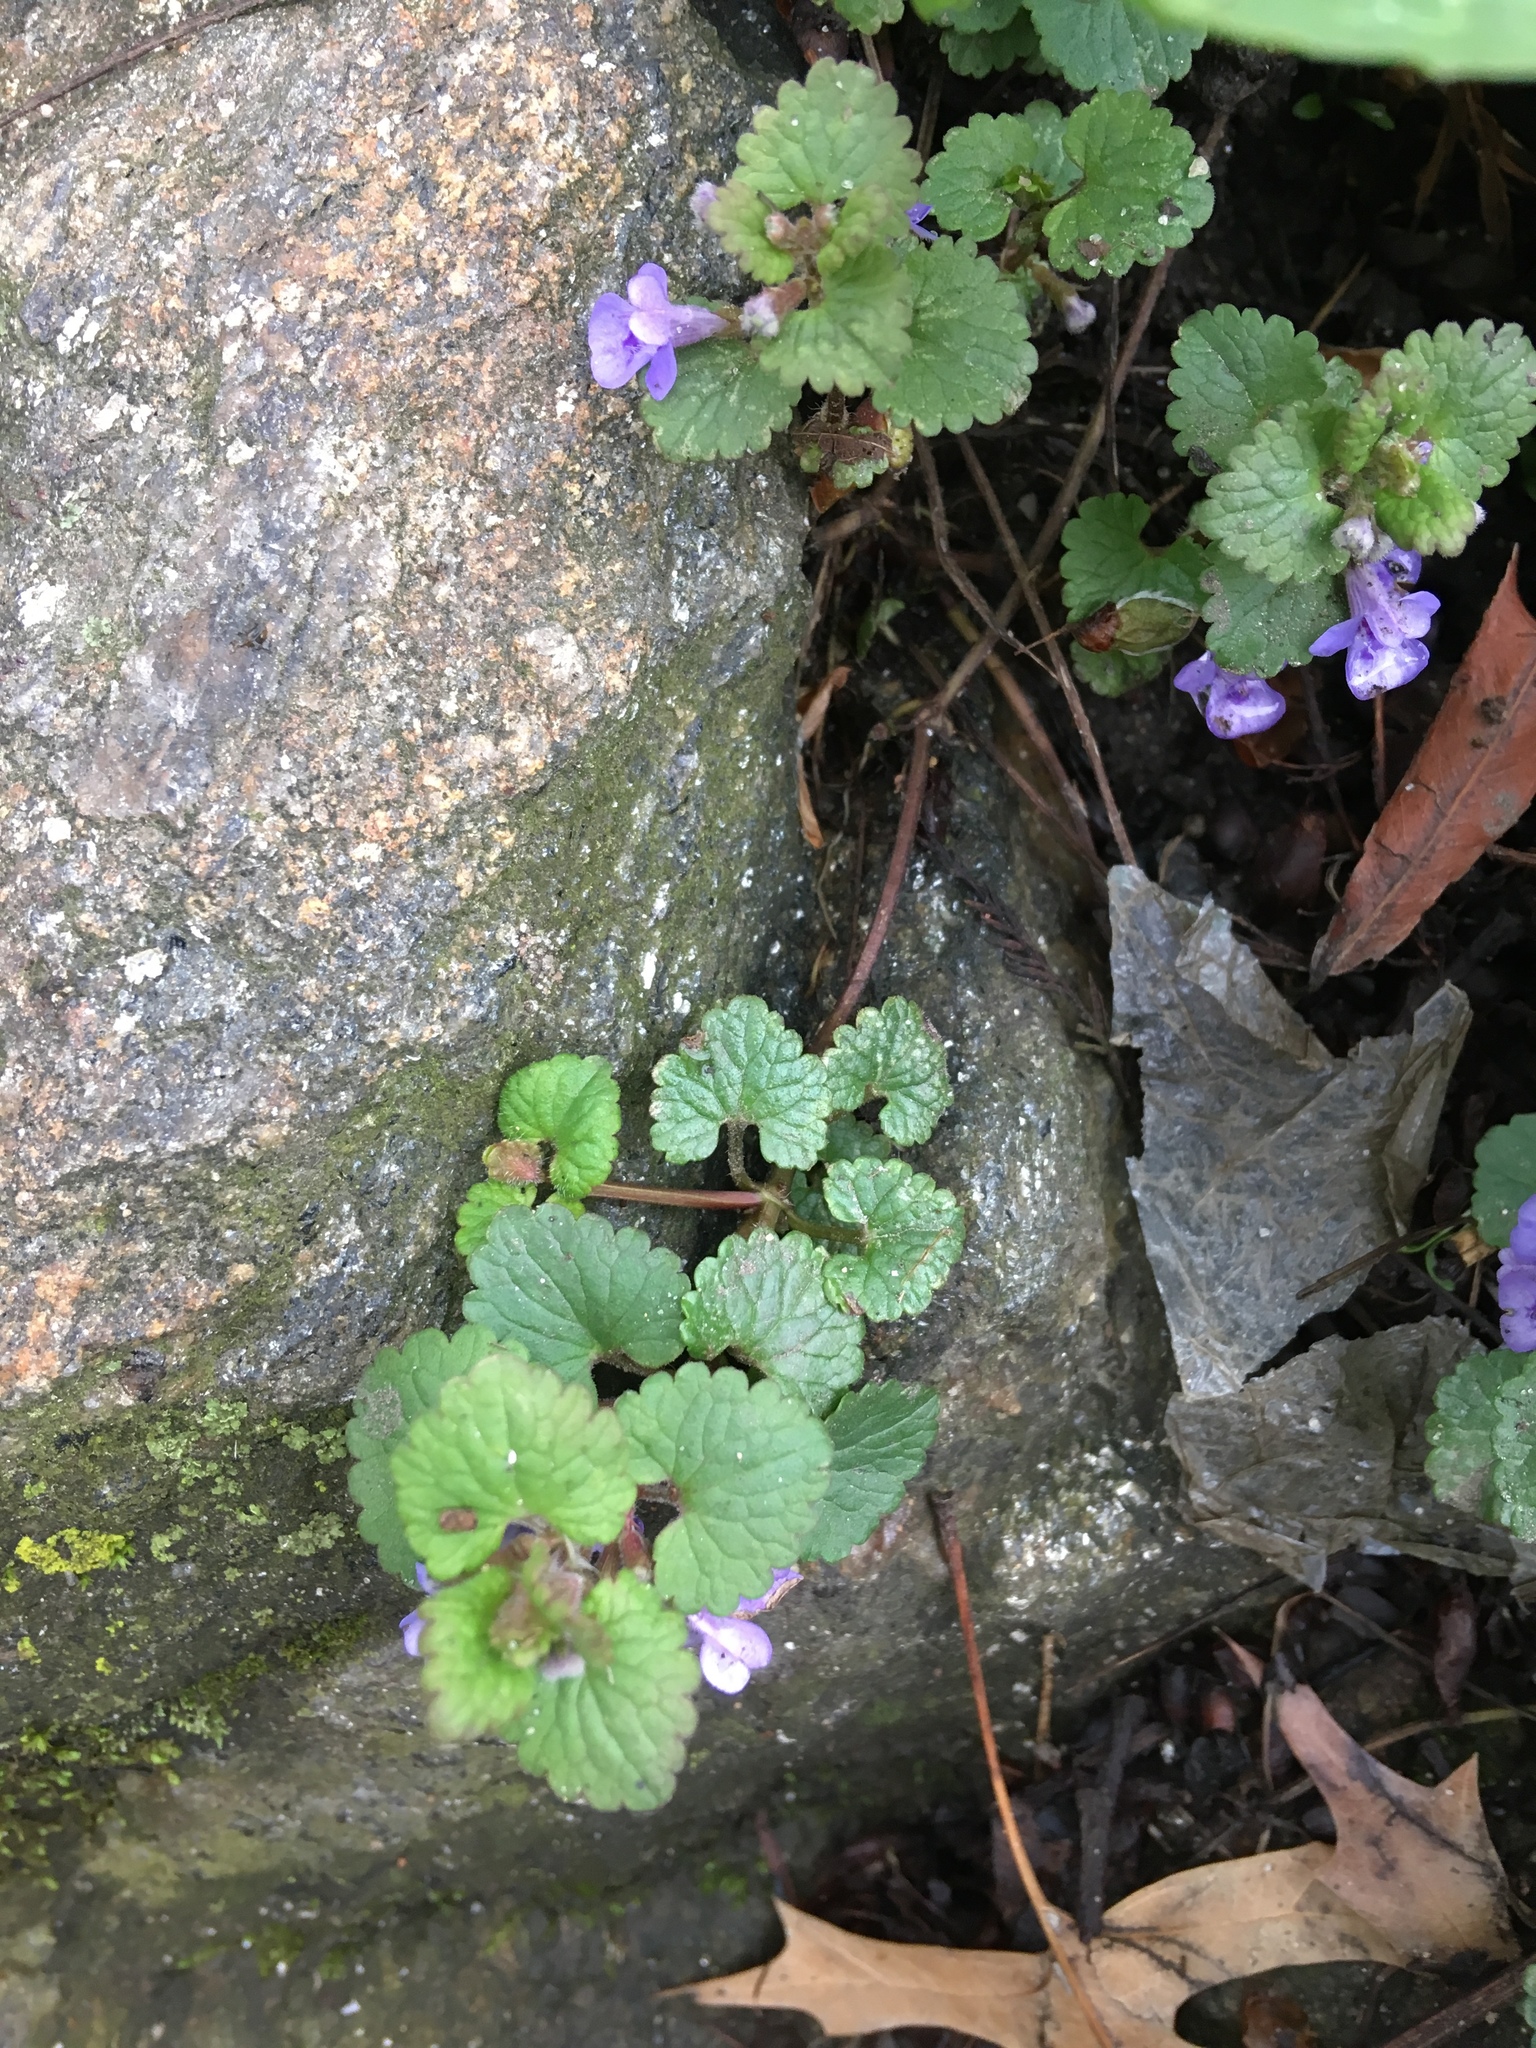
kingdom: Plantae
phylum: Tracheophyta
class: Magnoliopsida
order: Lamiales
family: Lamiaceae
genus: Glechoma
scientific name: Glechoma hederacea
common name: Ground ivy
